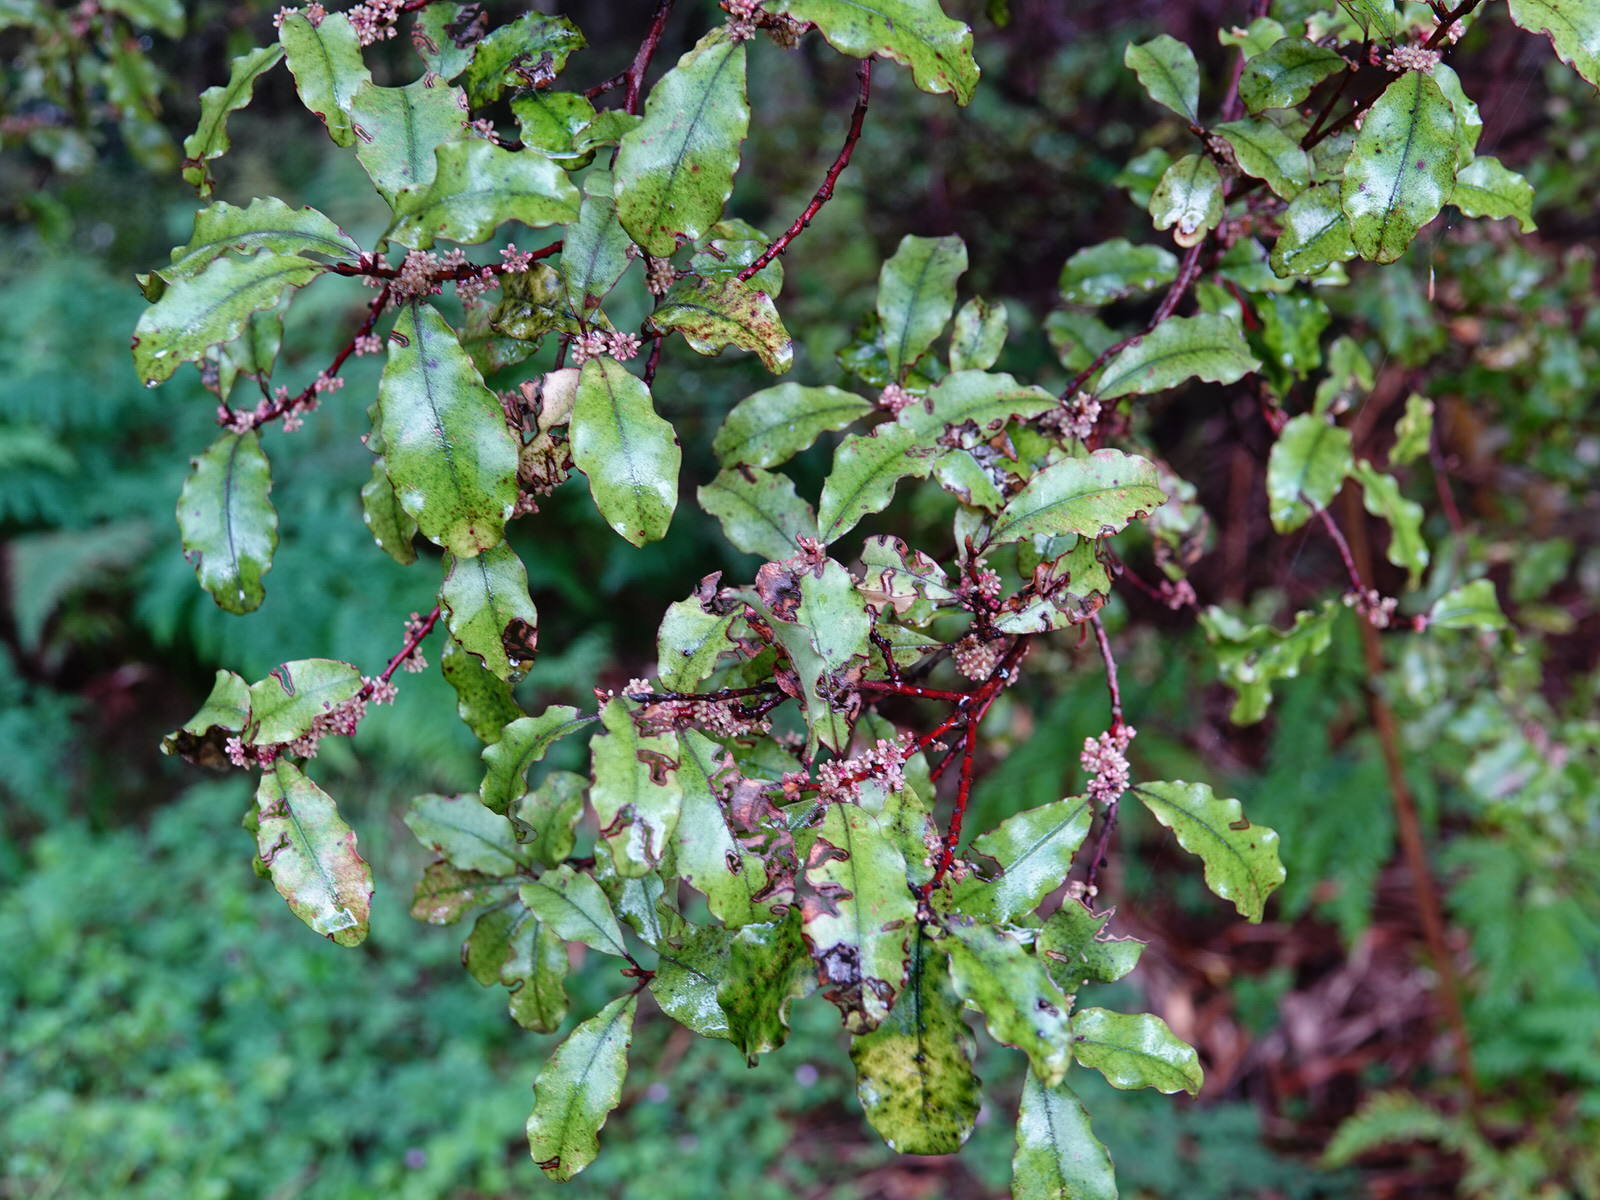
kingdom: Plantae
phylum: Tracheophyta
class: Magnoliopsida
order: Ericales
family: Primulaceae
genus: Myrsine
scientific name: Myrsine australis
